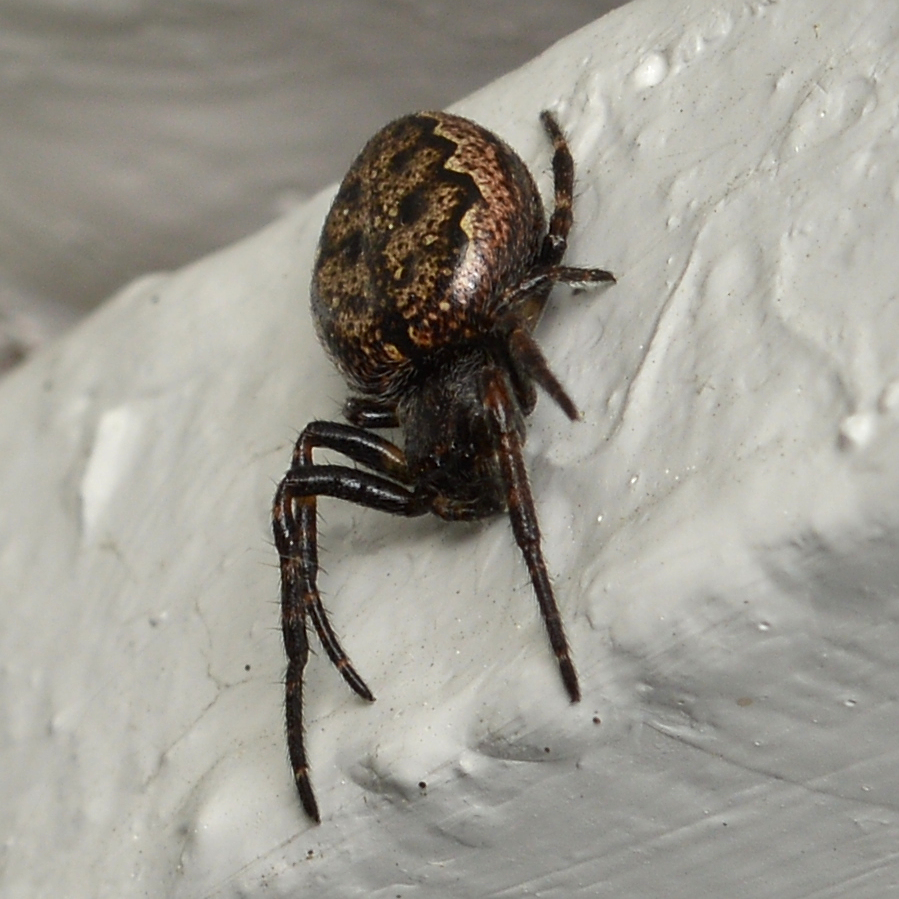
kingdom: Animalia
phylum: Arthropoda
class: Arachnida
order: Araneae
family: Araneidae
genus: Nuctenea
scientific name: Nuctenea umbratica
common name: Toad spider
